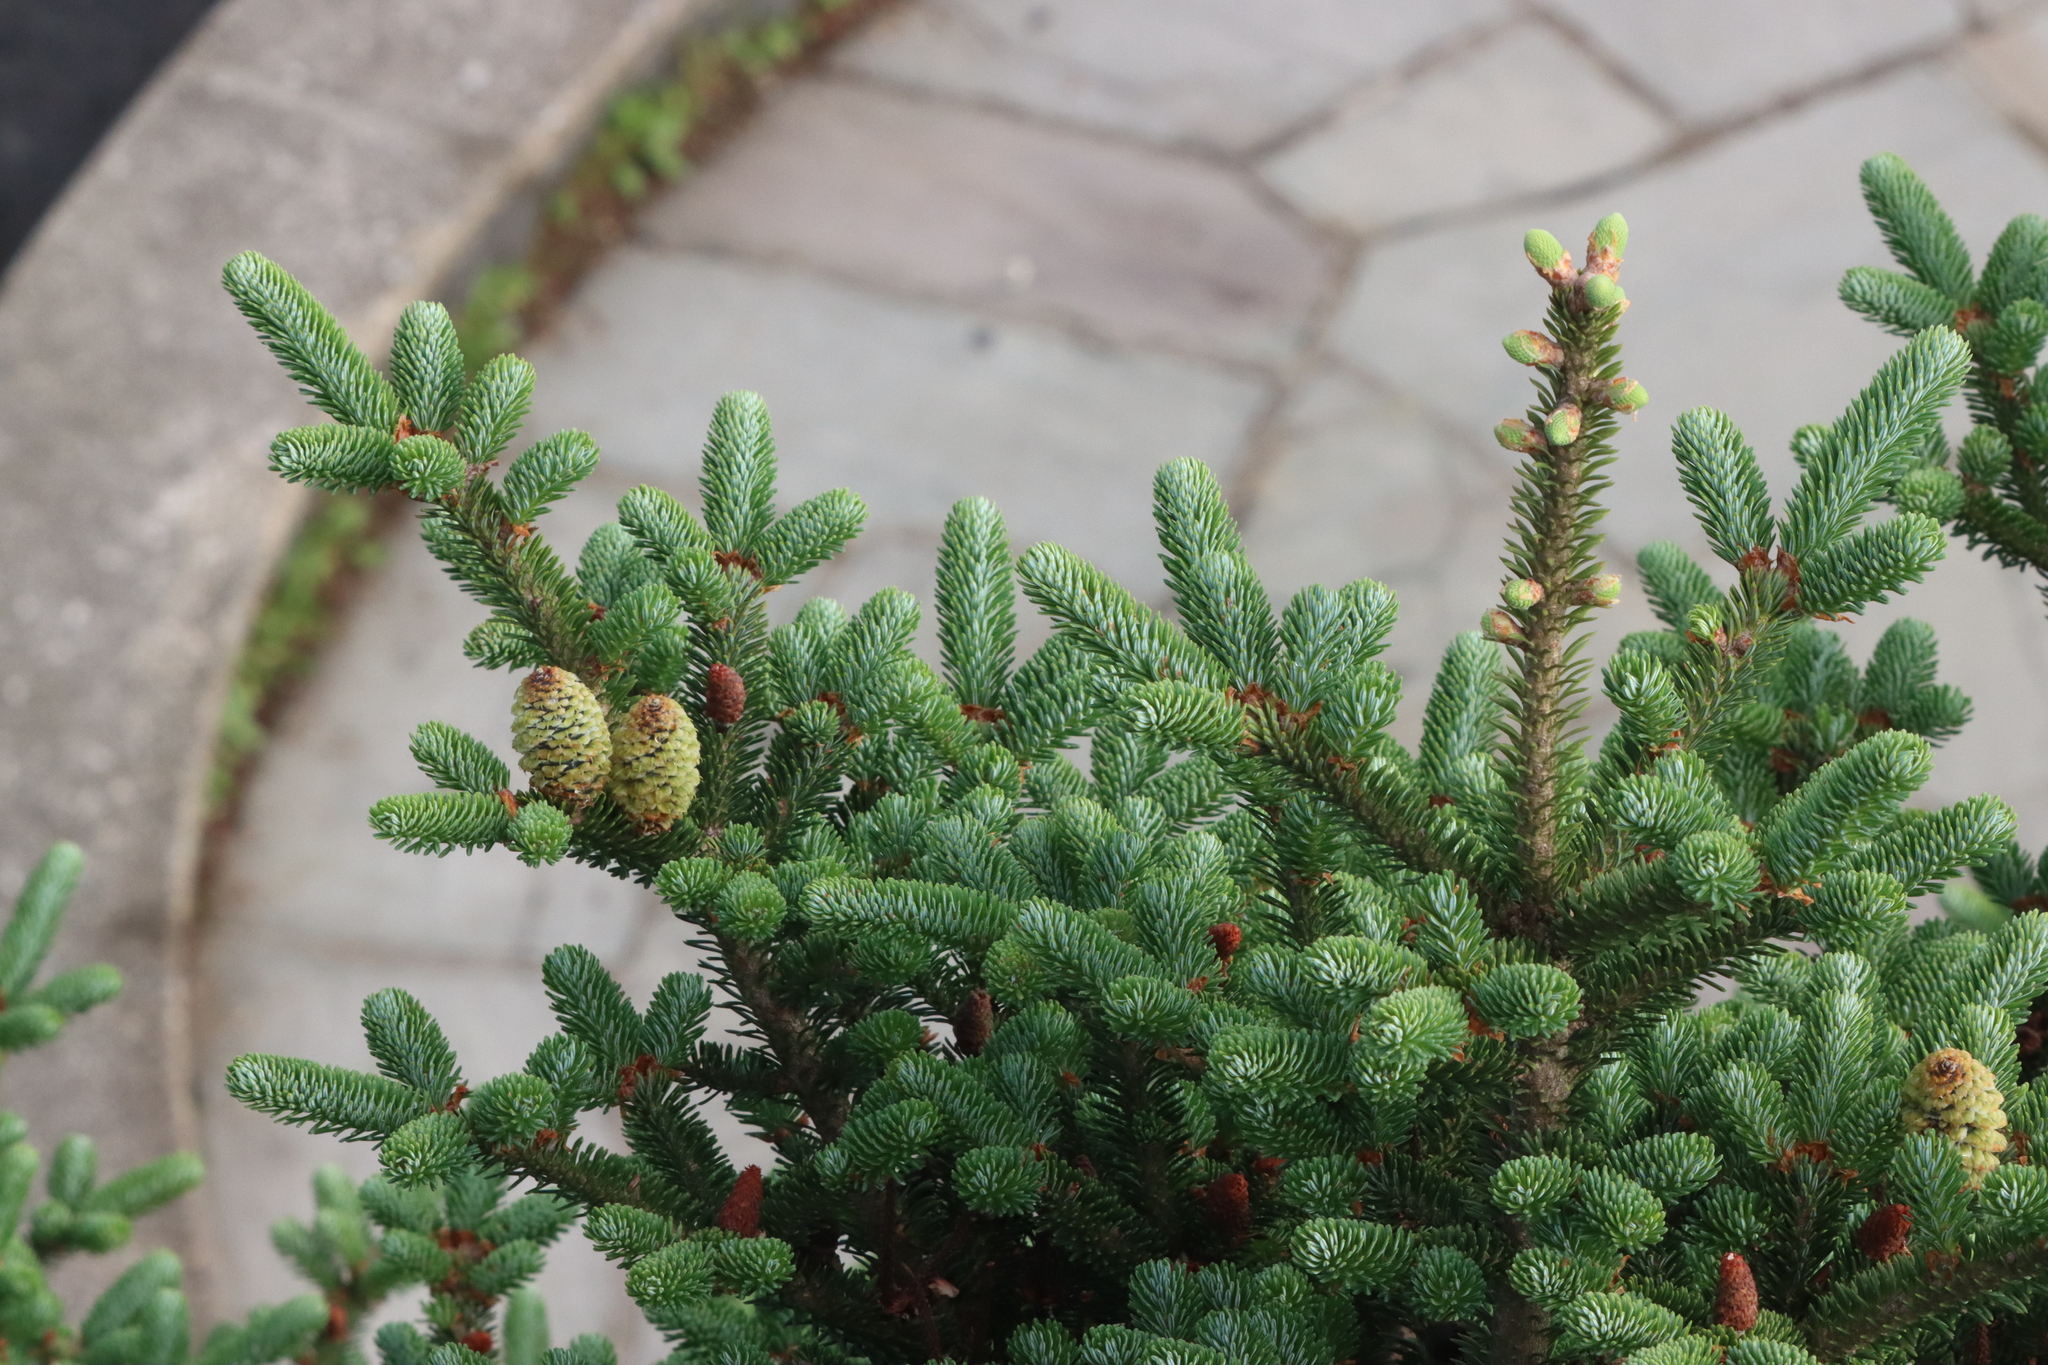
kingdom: Plantae
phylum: Tracheophyta
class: Pinopsida
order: Pinales
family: Pinaceae
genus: Abies
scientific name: Abies fraseri
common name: Fraser fir
